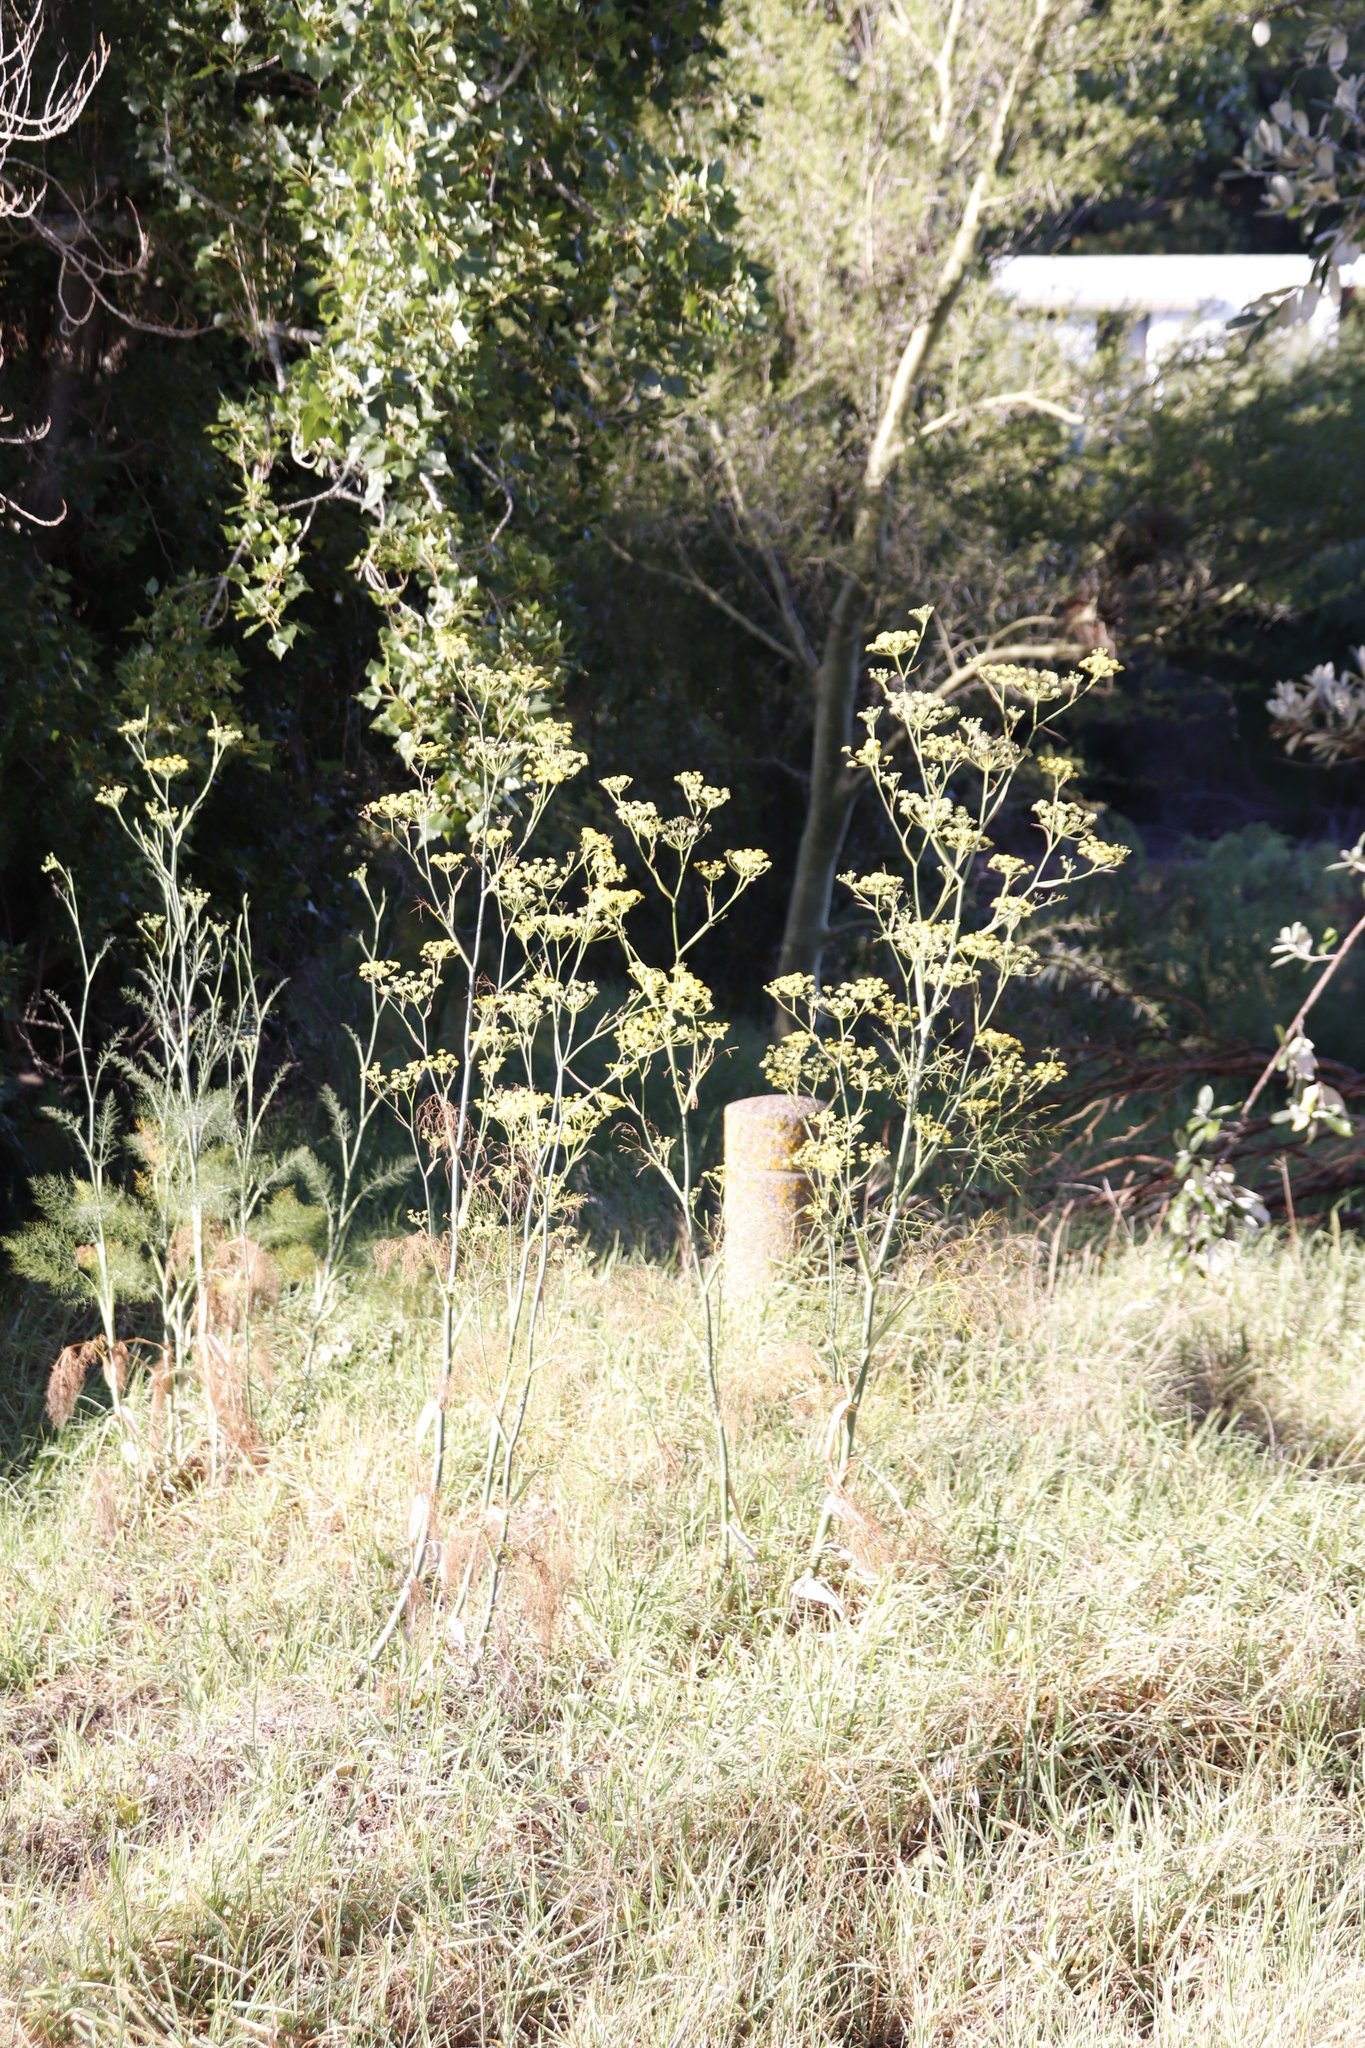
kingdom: Plantae
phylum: Tracheophyta
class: Magnoliopsida
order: Apiales
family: Apiaceae
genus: Foeniculum
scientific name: Foeniculum vulgare
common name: Fennel
